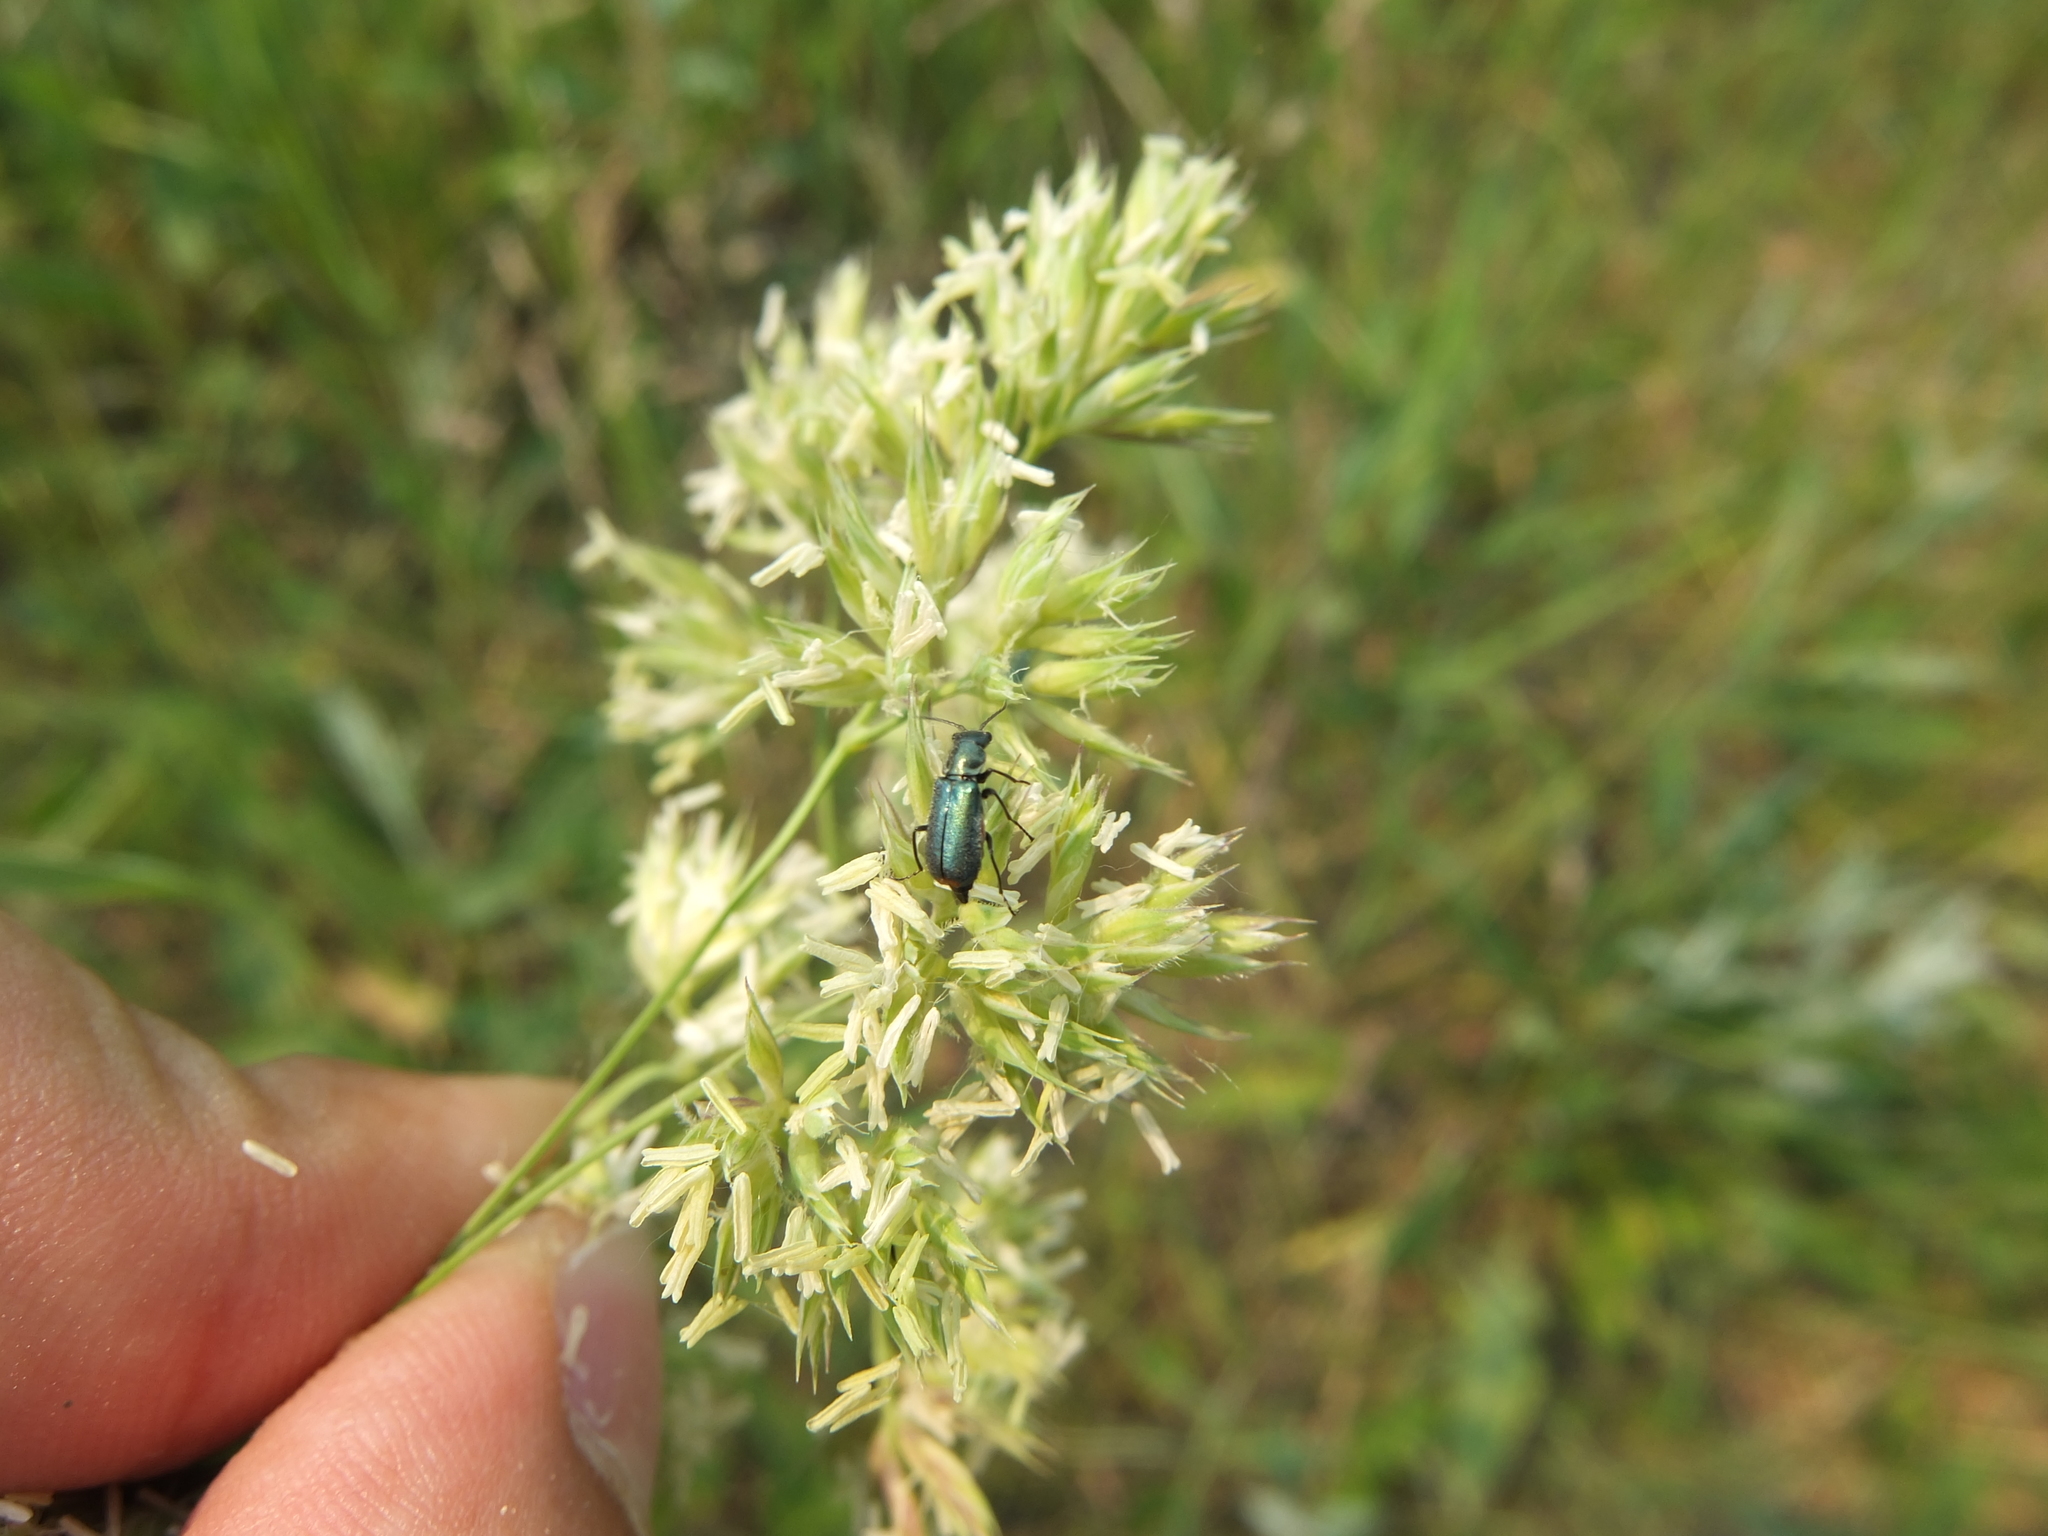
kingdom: Animalia
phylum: Arthropoda
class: Insecta
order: Coleoptera
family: Malachiidae
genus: Cordylepherus
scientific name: Cordylepherus viridis
